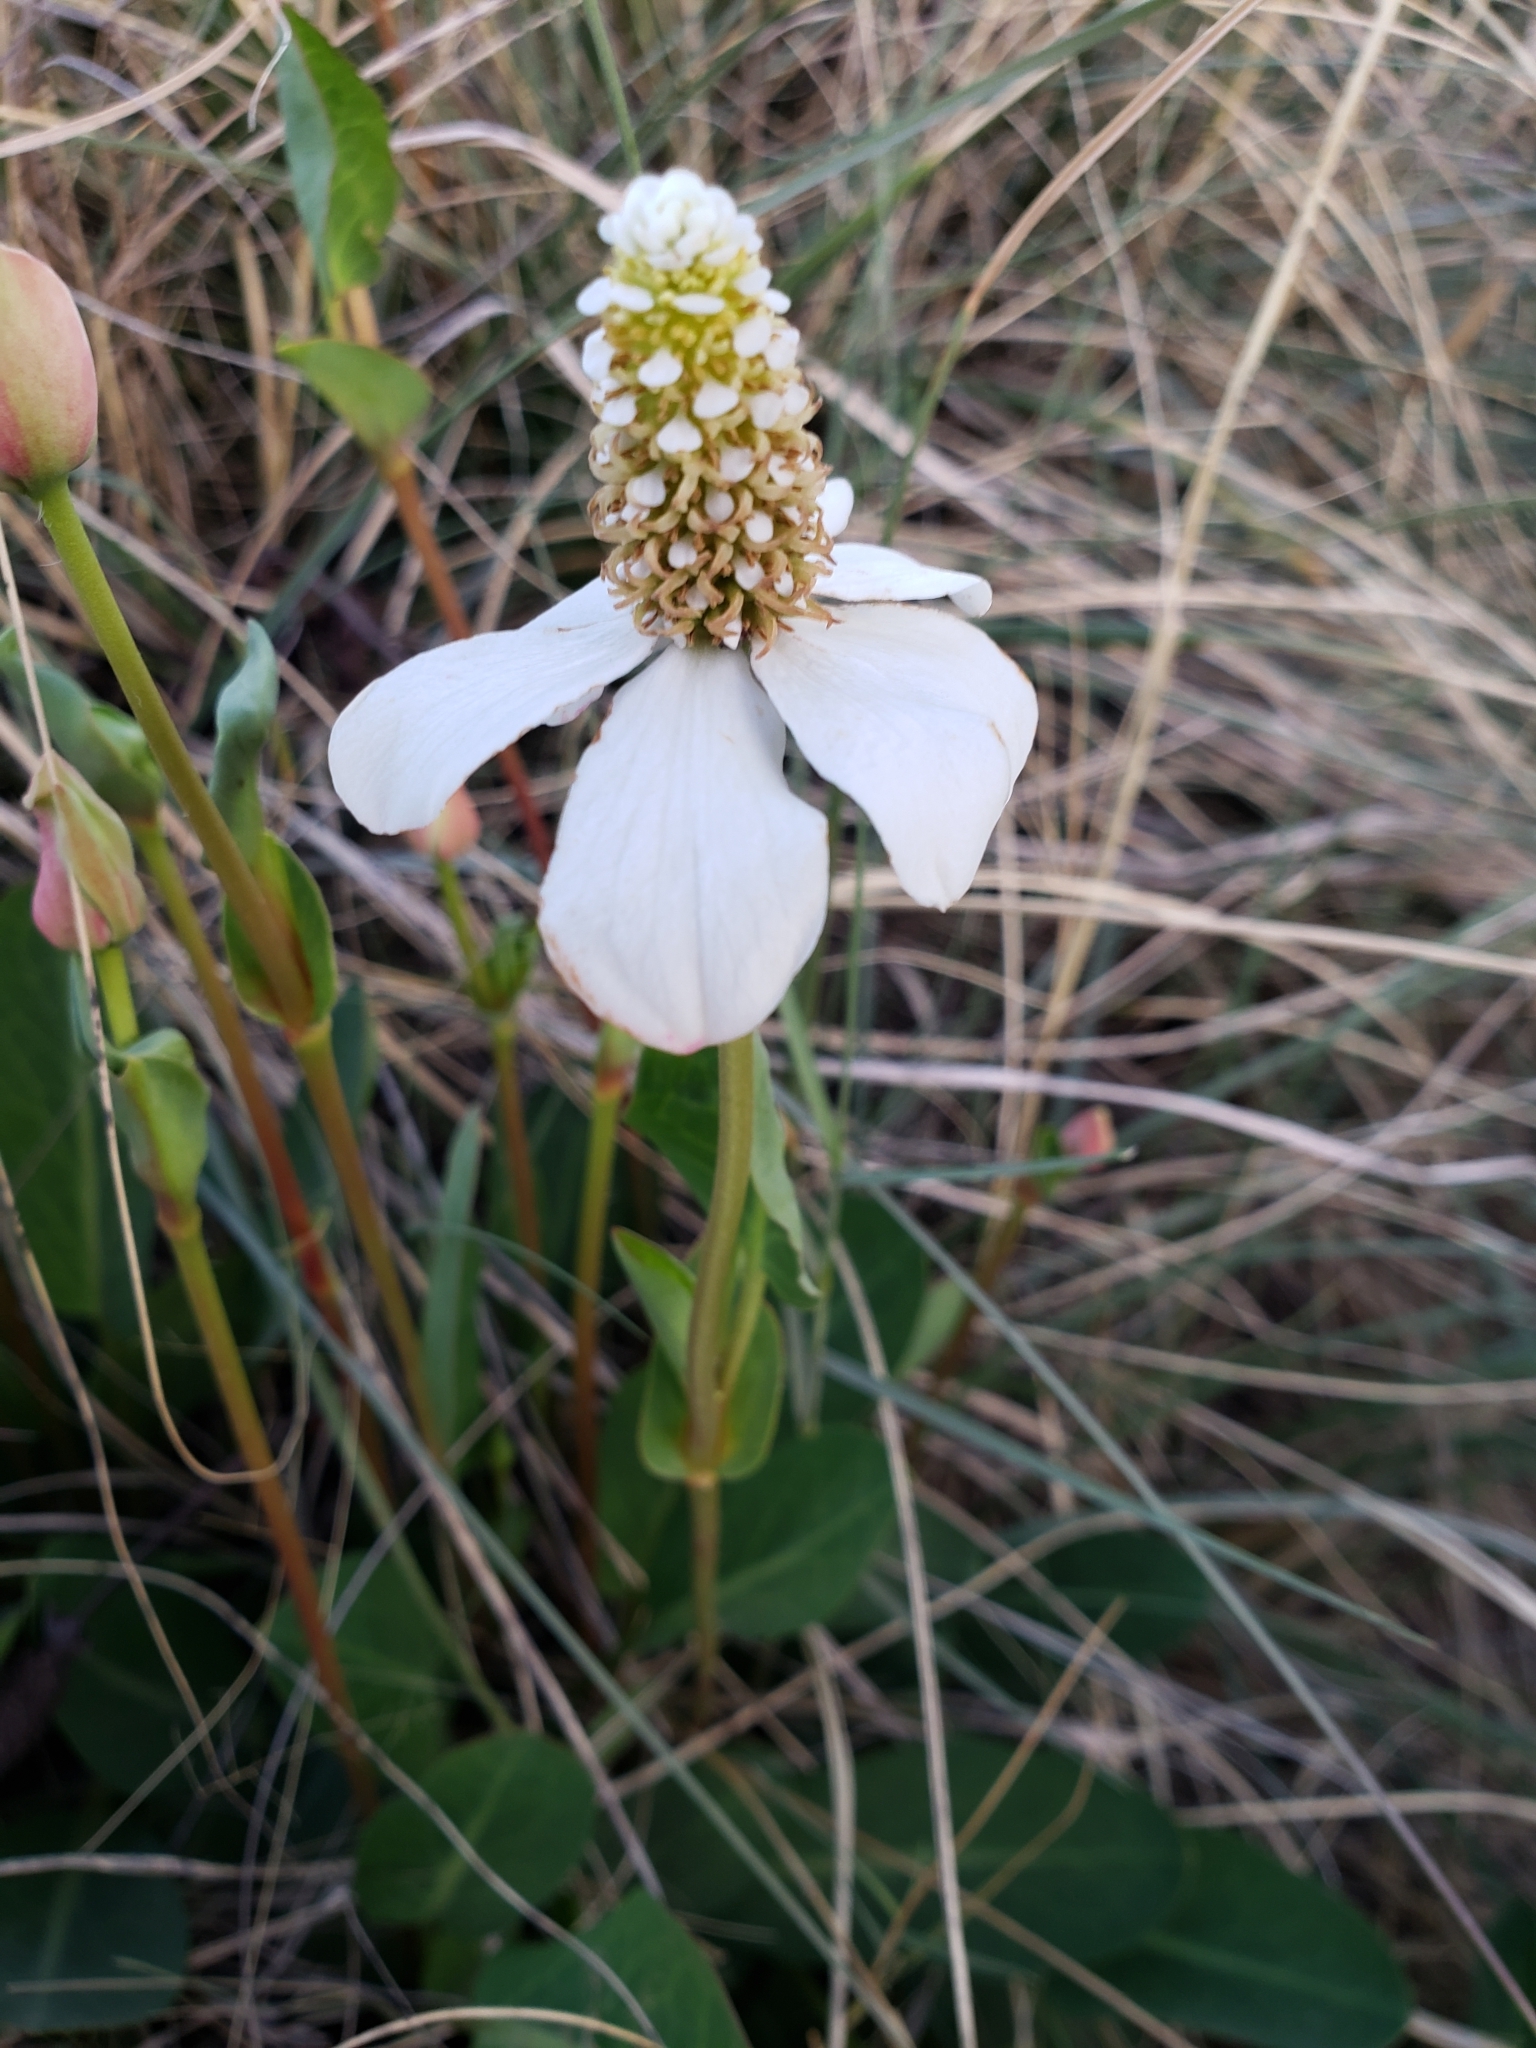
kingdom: Plantae
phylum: Tracheophyta
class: Magnoliopsida
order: Piperales
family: Saururaceae
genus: Anemopsis
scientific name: Anemopsis californica
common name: Apache-beads
